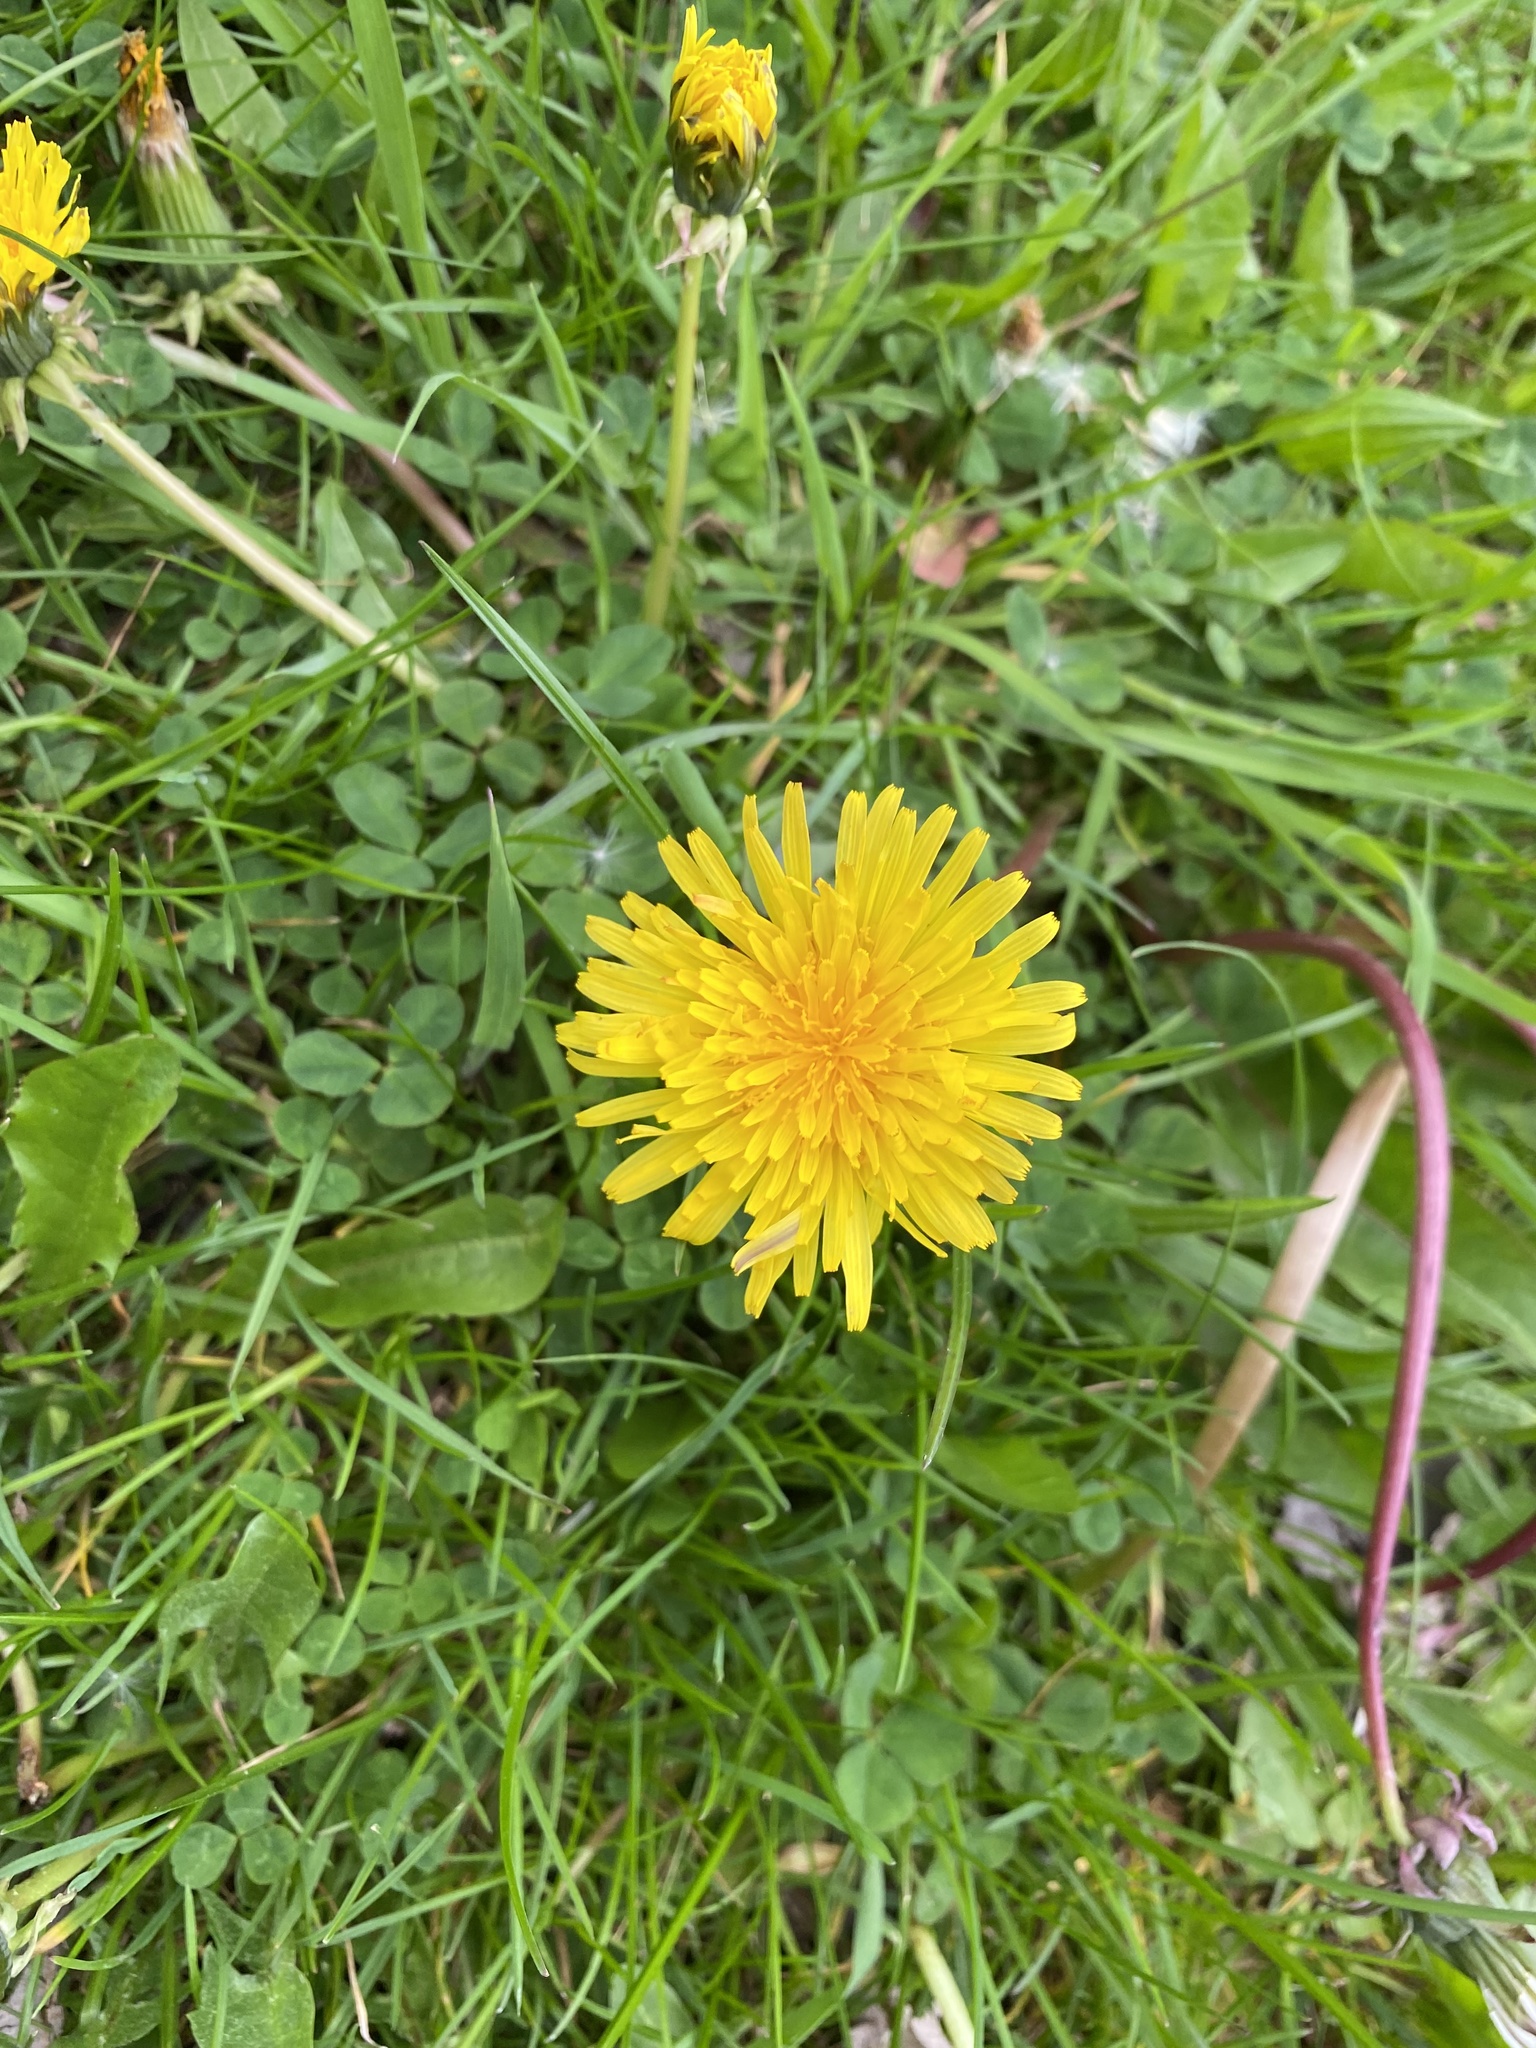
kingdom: Plantae
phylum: Tracheophyta
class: Magnoliopsida
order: Asterales
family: Asteraceae
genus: Taraxacum
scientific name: Taraxacum officinale
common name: Common dandelion
